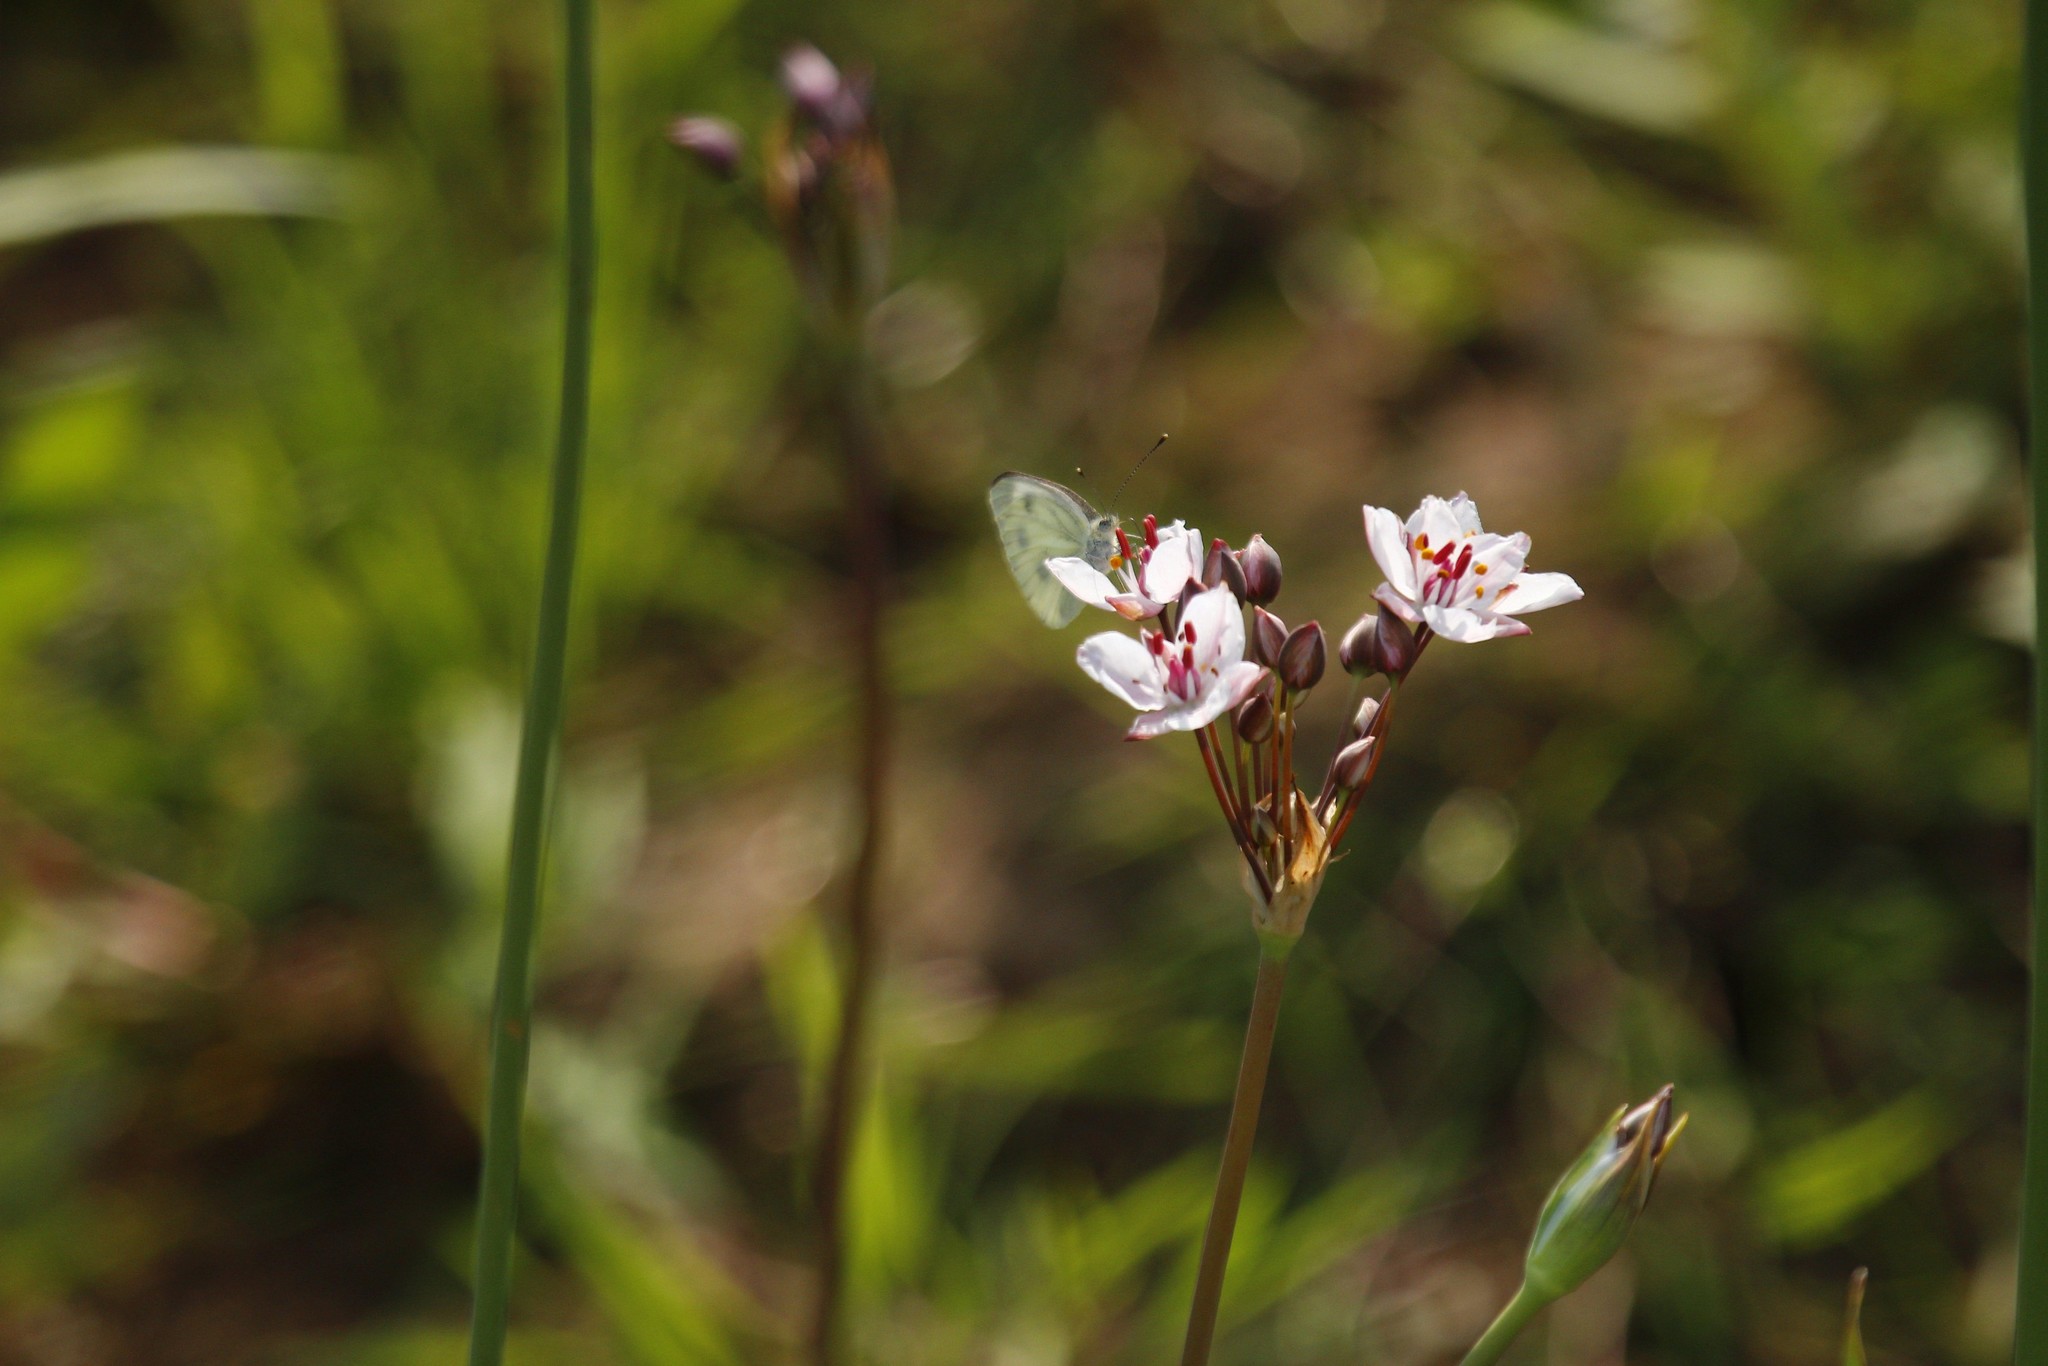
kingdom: Plantae
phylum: Tracheophyta
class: Liliopsida
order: Alismatales
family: Butomaceae
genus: Butomus
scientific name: Butomus umbellatus
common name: Flowering-rush
